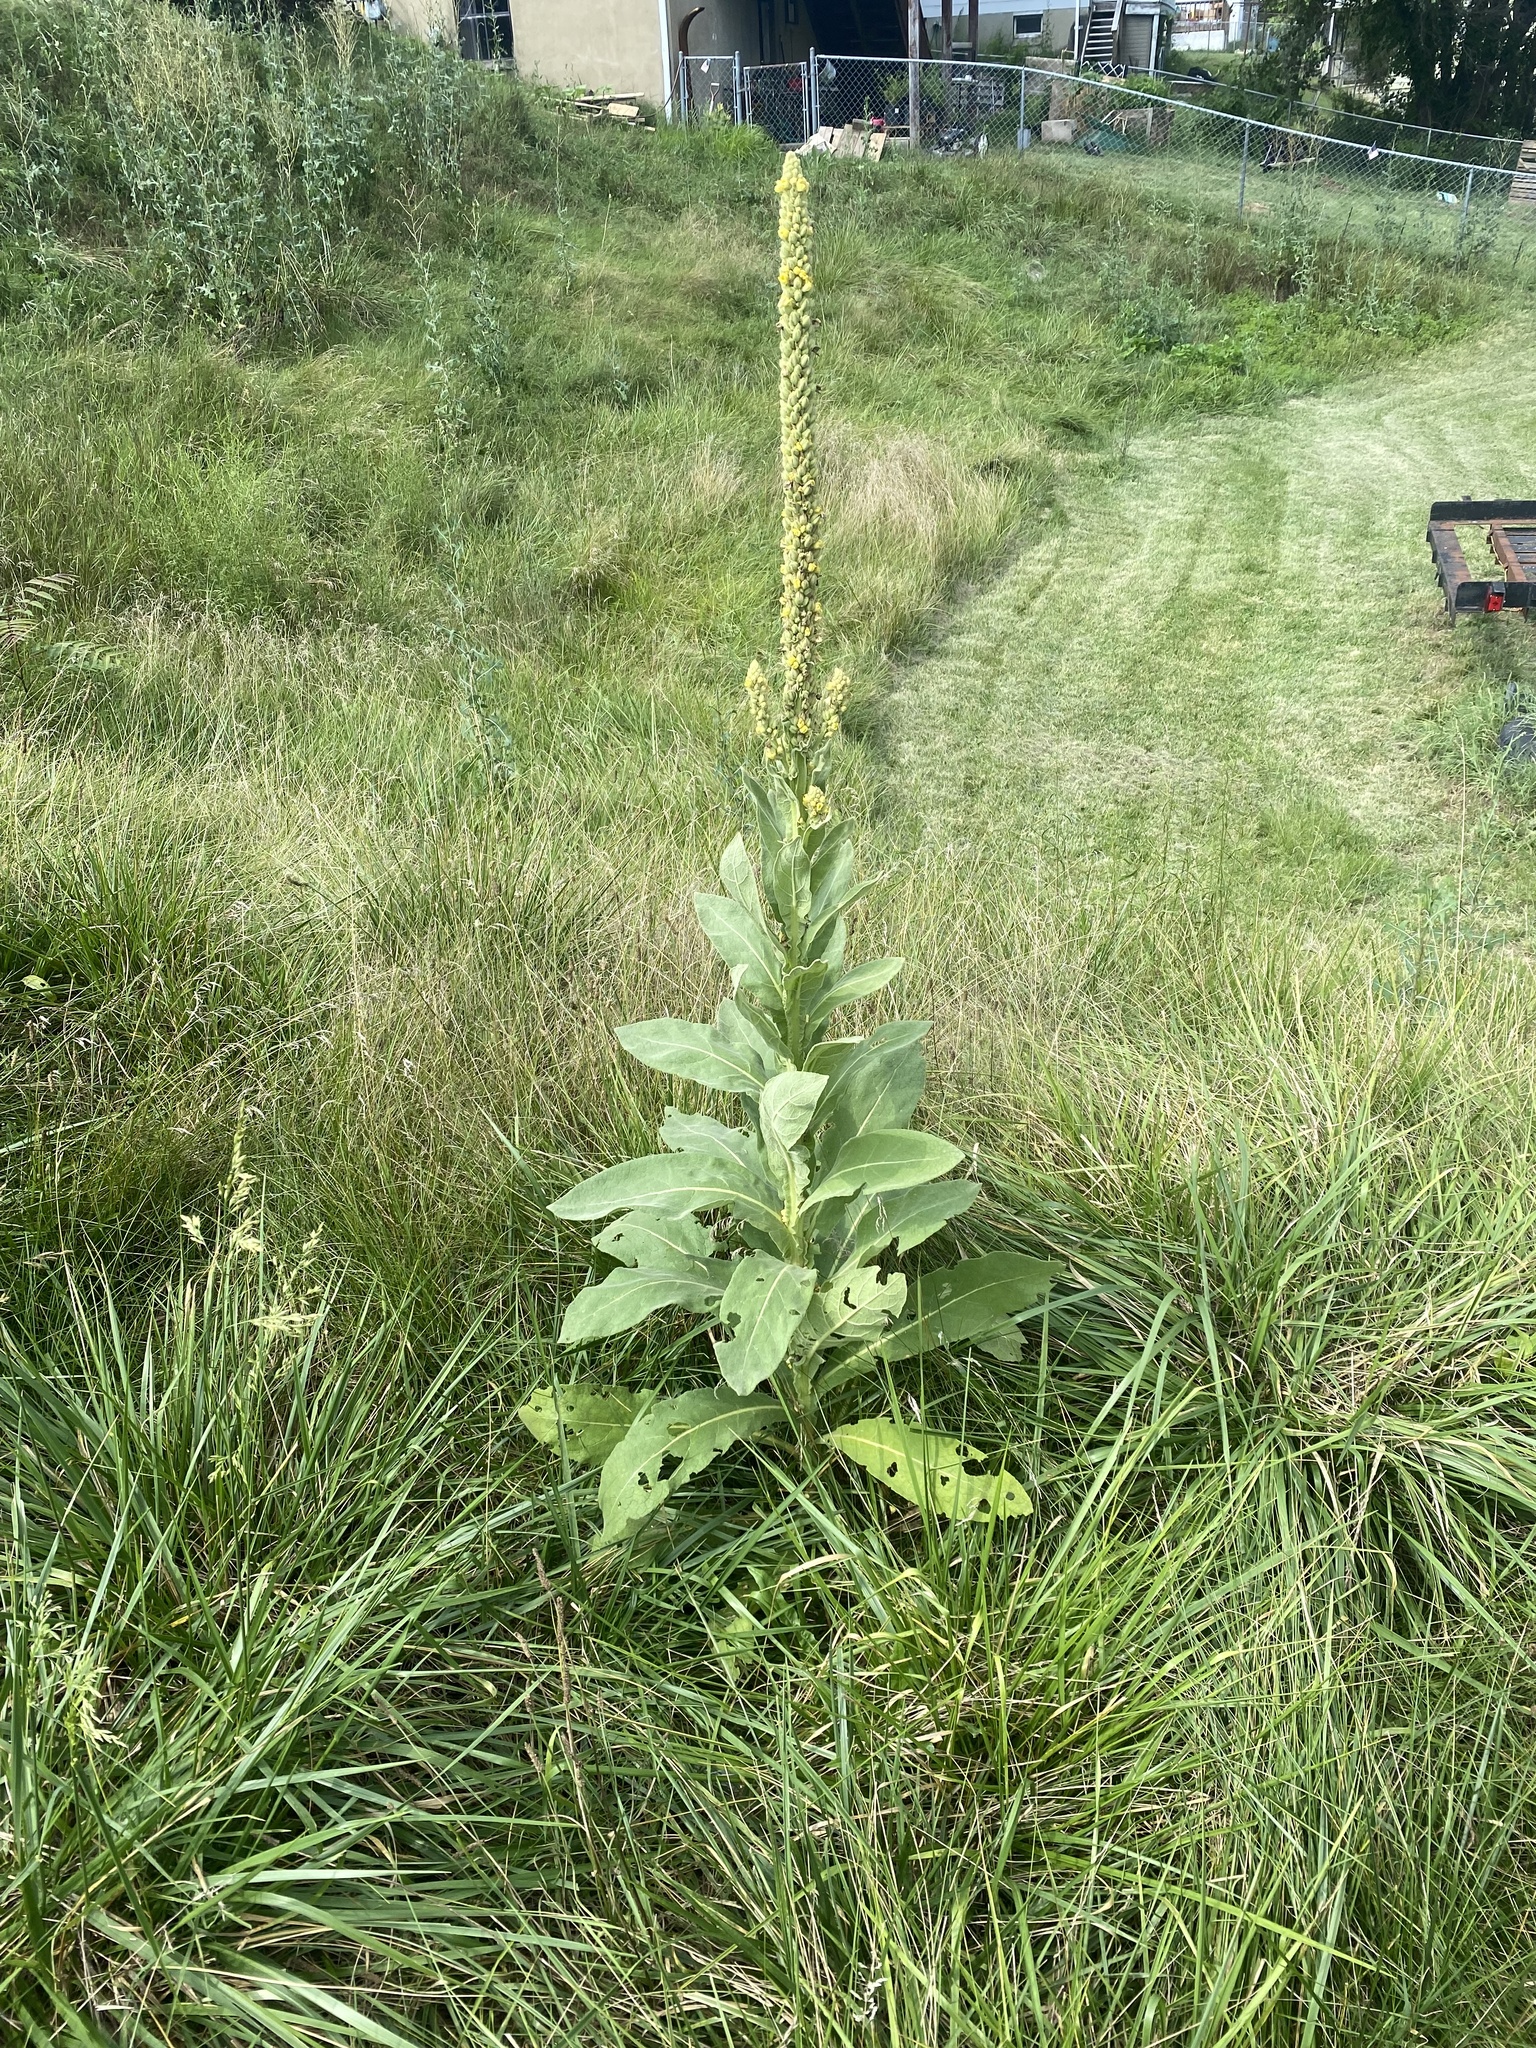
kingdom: Plantae
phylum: Tracheophyta
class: Magnoliopsida
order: Lamiales
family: Scrophulariaceae
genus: Verbascum
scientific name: Verbascum thapsus
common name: Common mullein
